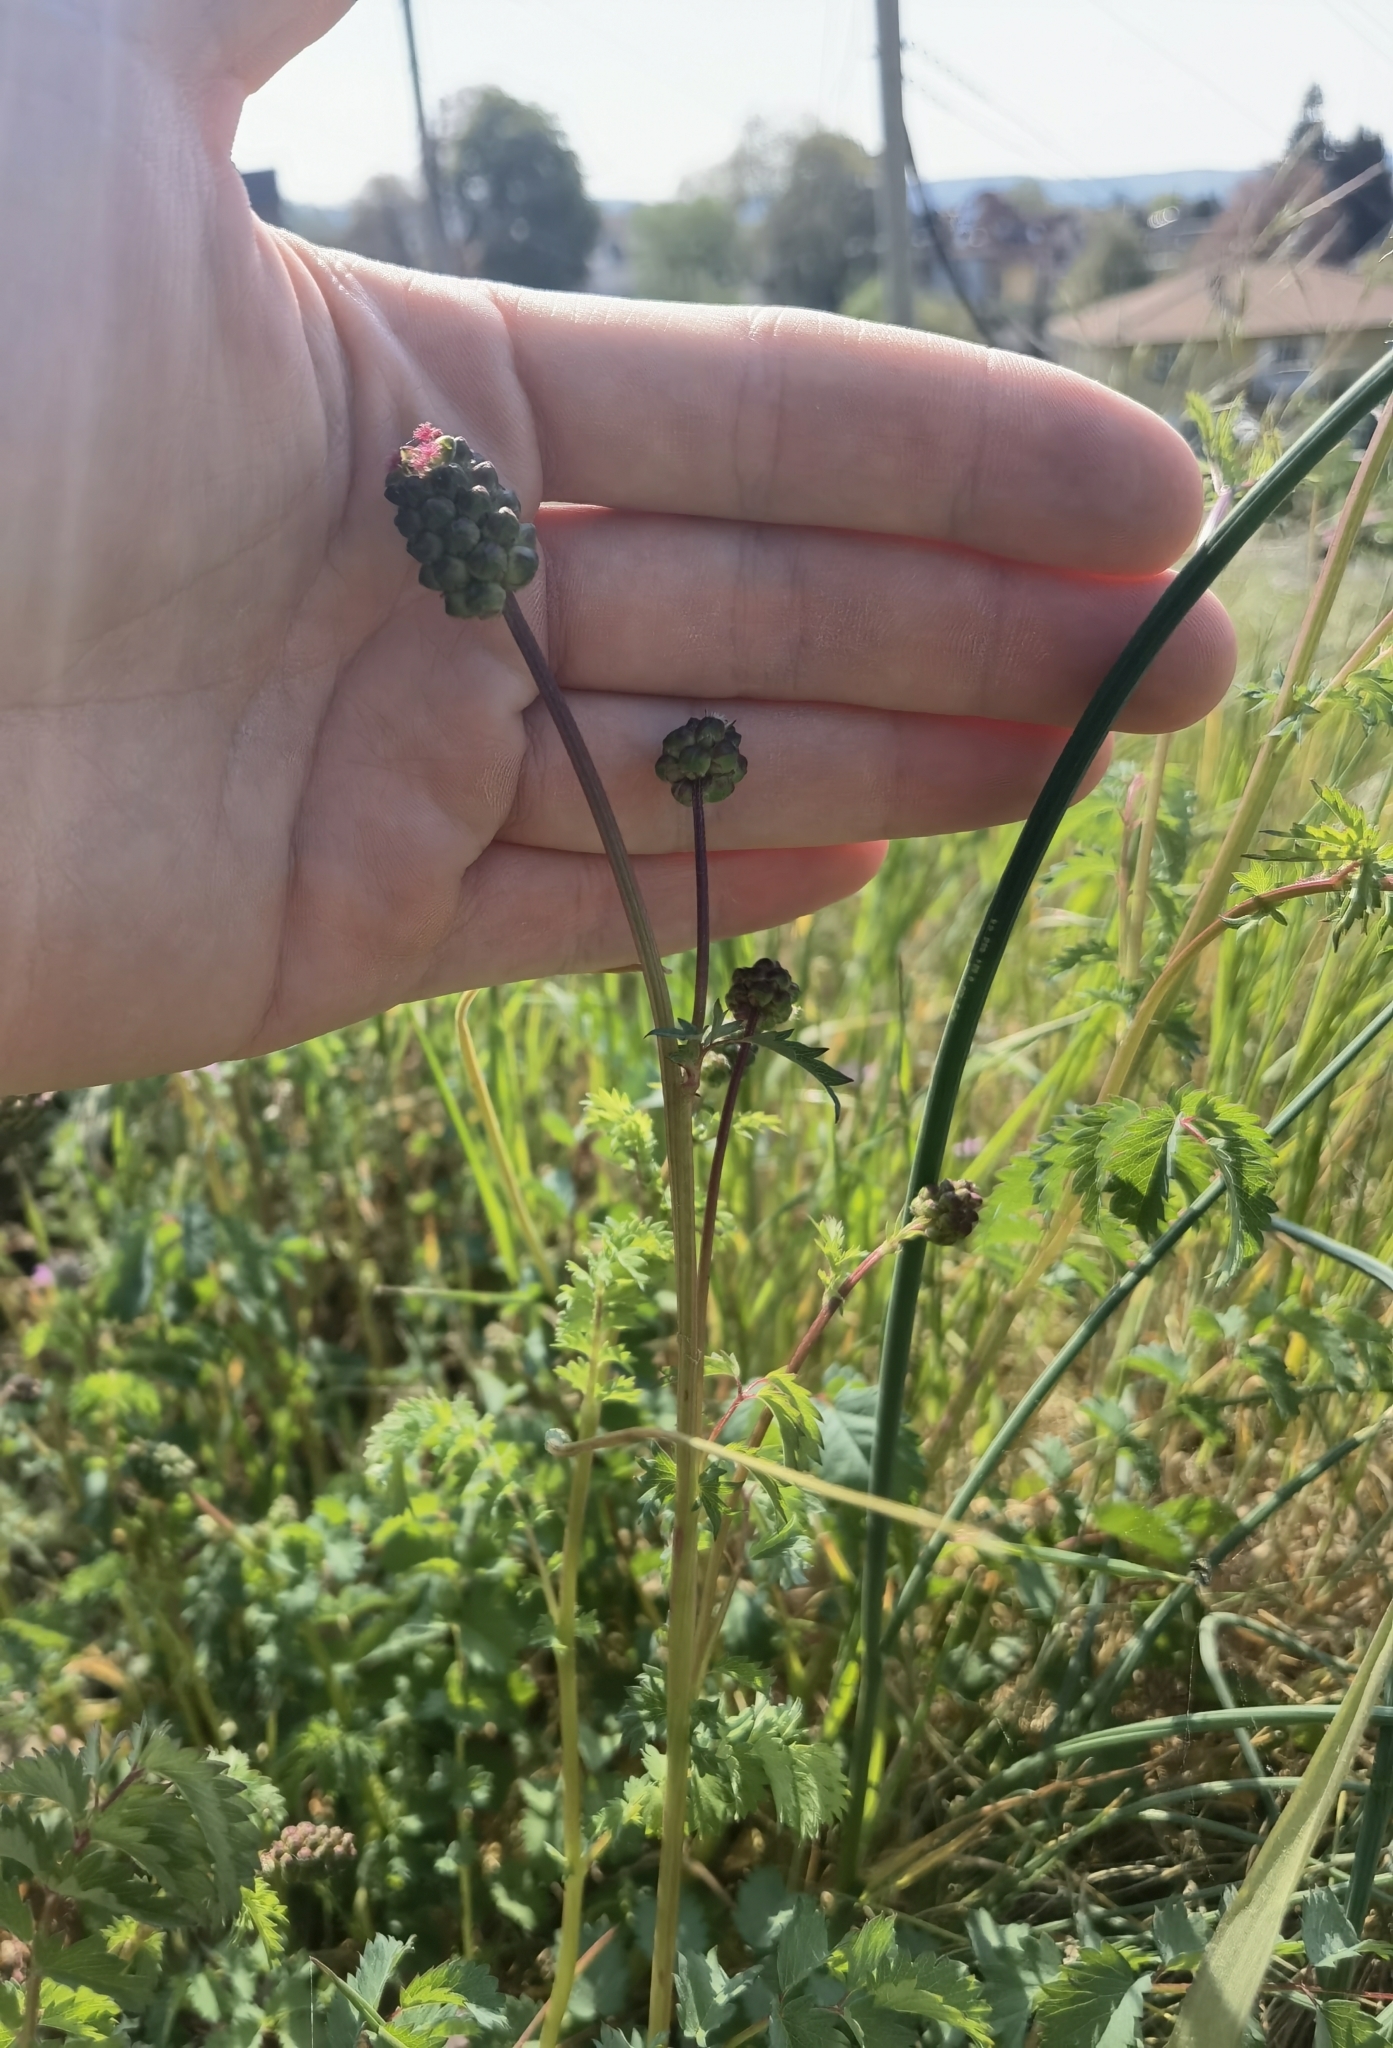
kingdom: Plantae
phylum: Tracheophyta
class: Magnoliopsida
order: Rosales
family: Rosaceae
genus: Poterium
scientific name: Poterium sanguisorba
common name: Salad burnet
